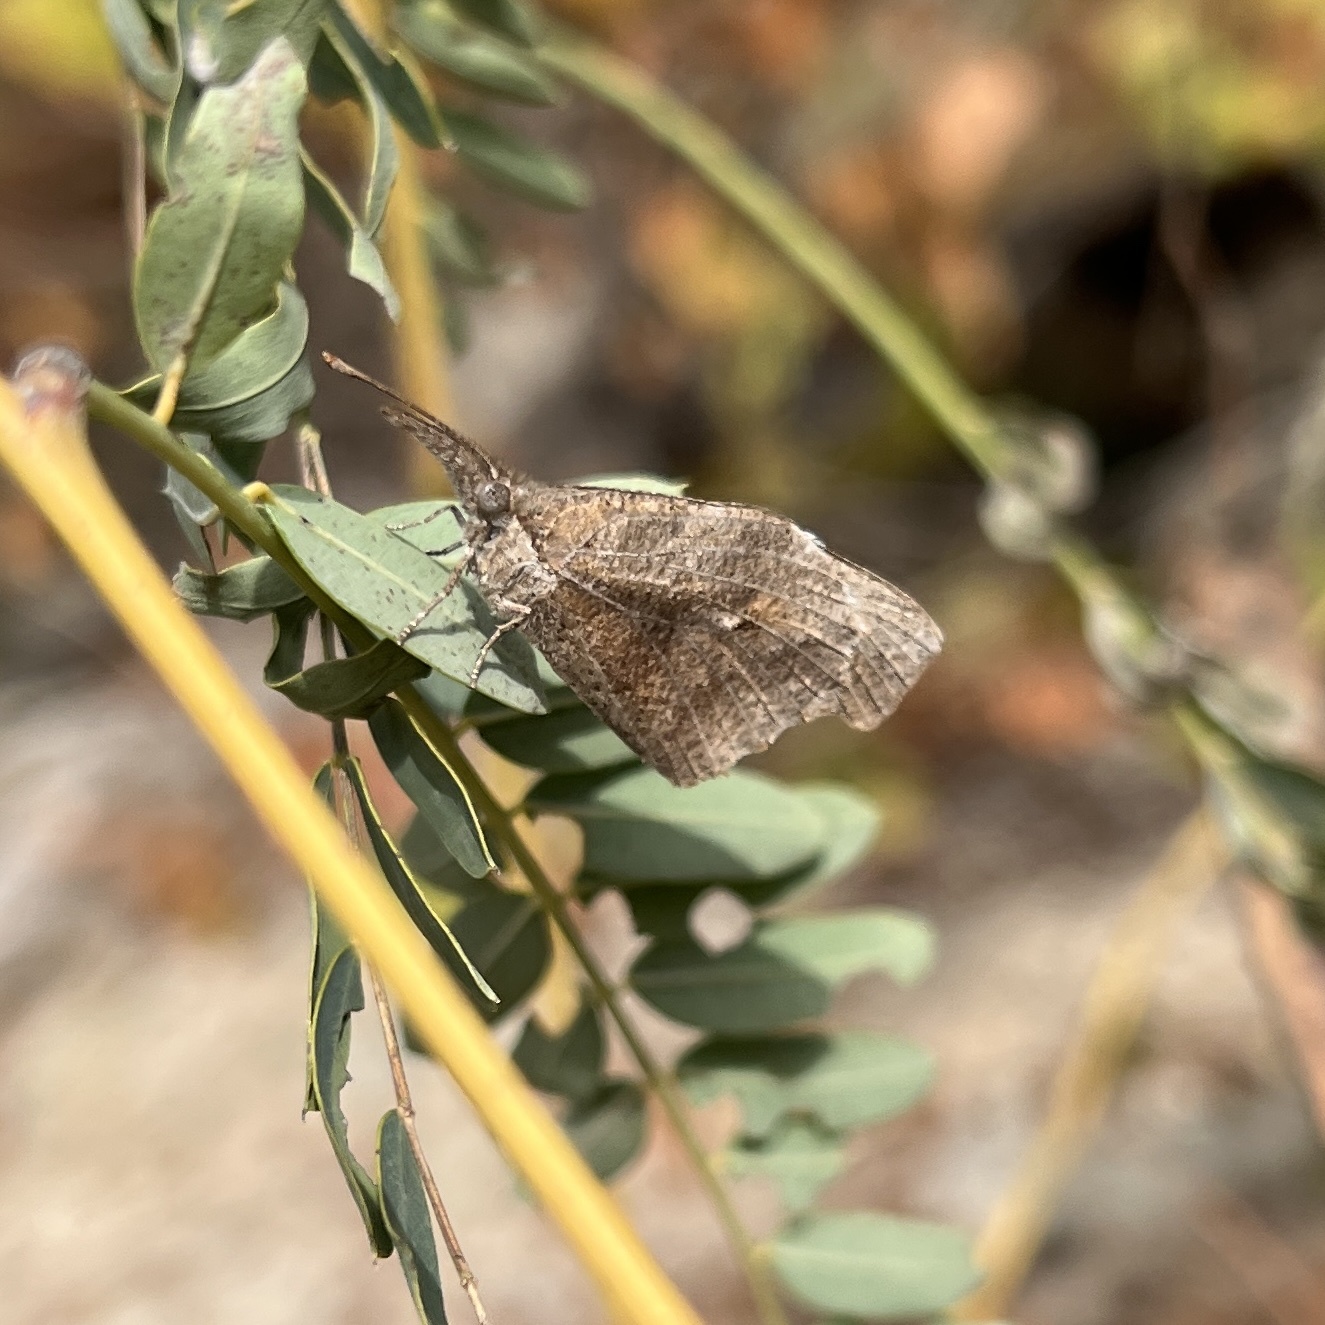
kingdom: Animalia
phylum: Arthropoda
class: Insecta
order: Lepidoptera
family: Nymphalidae
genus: Libytheana
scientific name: Libytheana carinenta
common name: American snout
